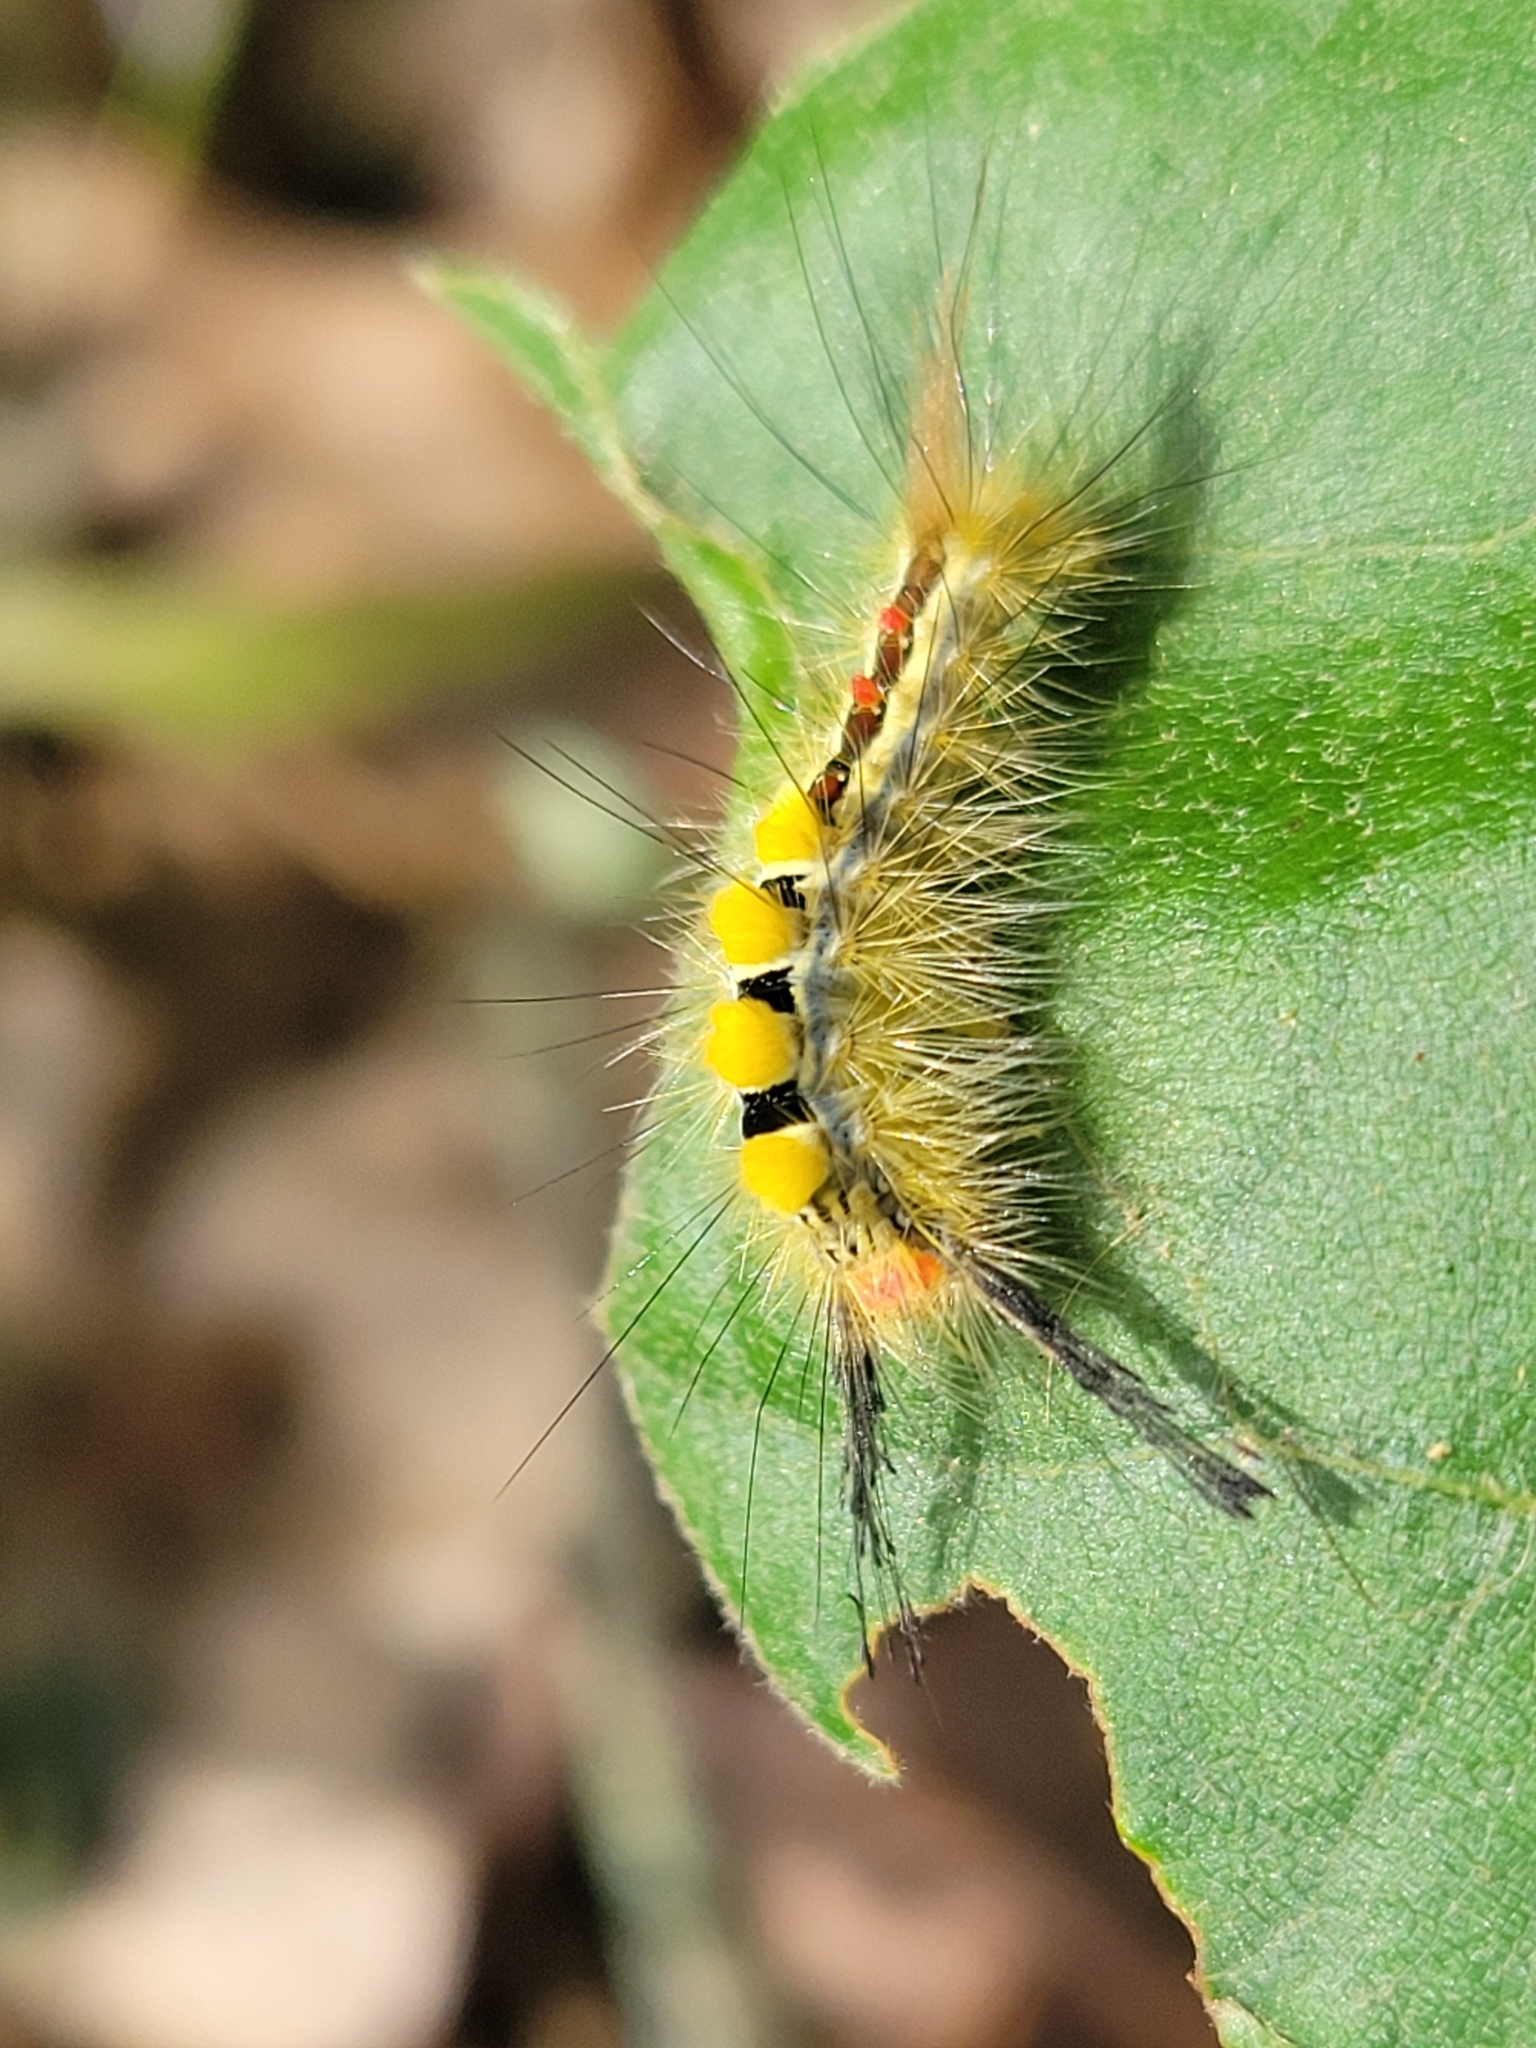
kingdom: Animalia
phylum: Arthropoda
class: Insecta
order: Lepidoptera
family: Erebidae
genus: Orgyia
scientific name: Orgyia leucostigma
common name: White-marked tussock moth
